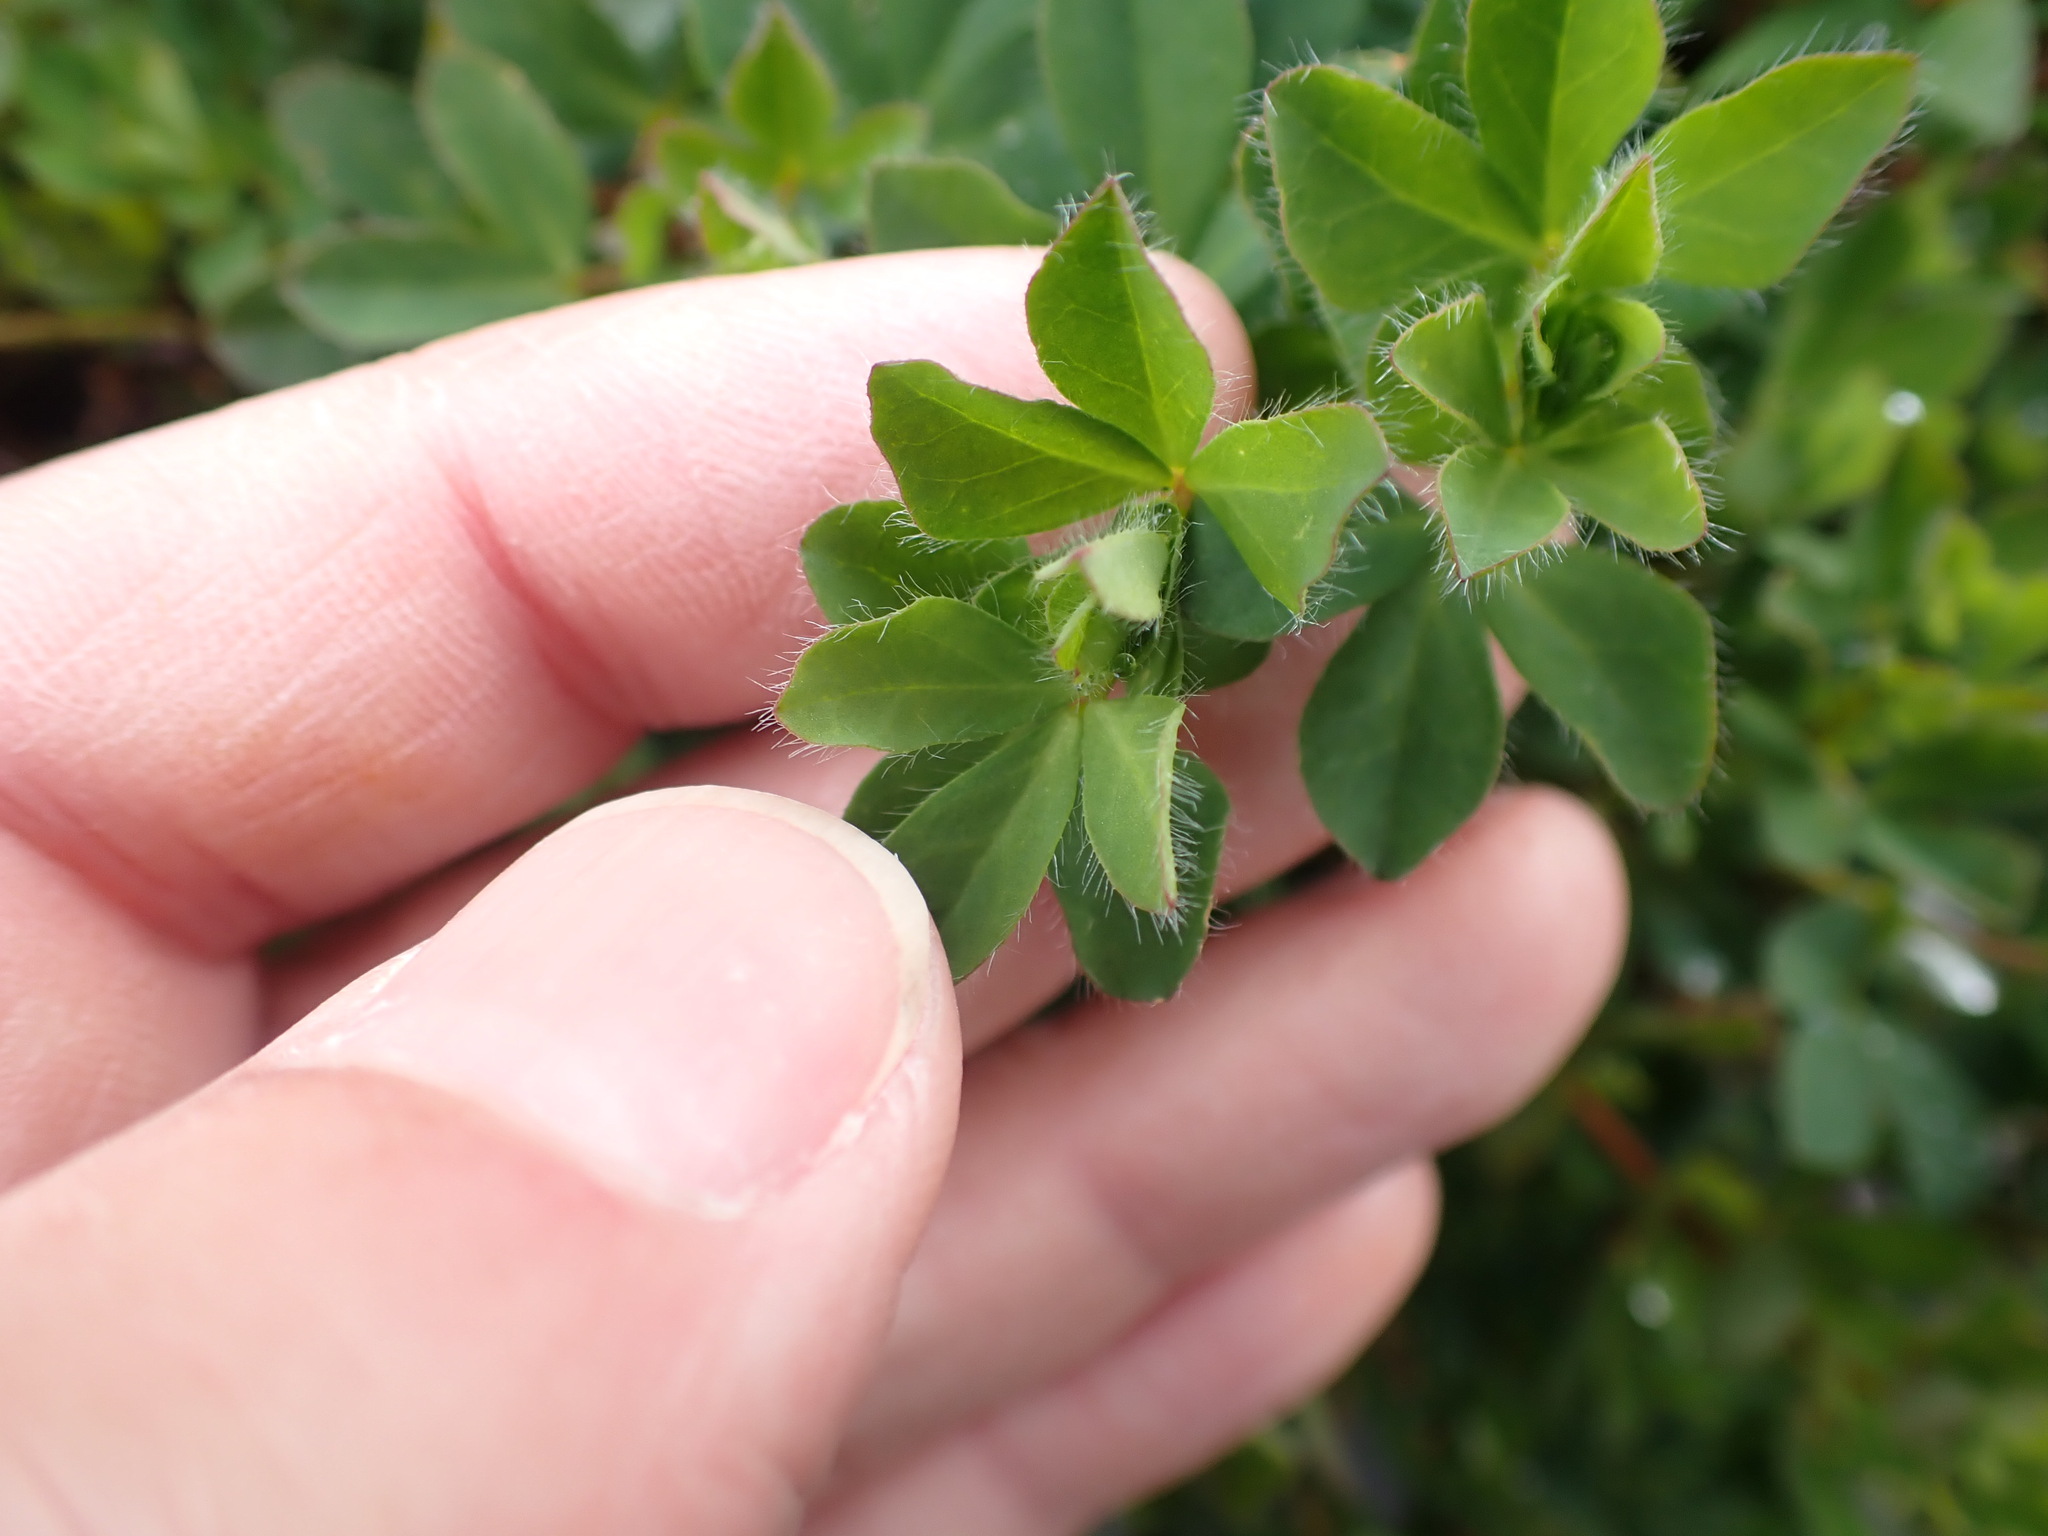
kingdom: Plantae
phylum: Tracheophyta
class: Magnoliopsida
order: Fabales
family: Fabaceae
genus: Lotus
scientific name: Lotus pedunculatus
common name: Greater birdsfoot-trefoil
